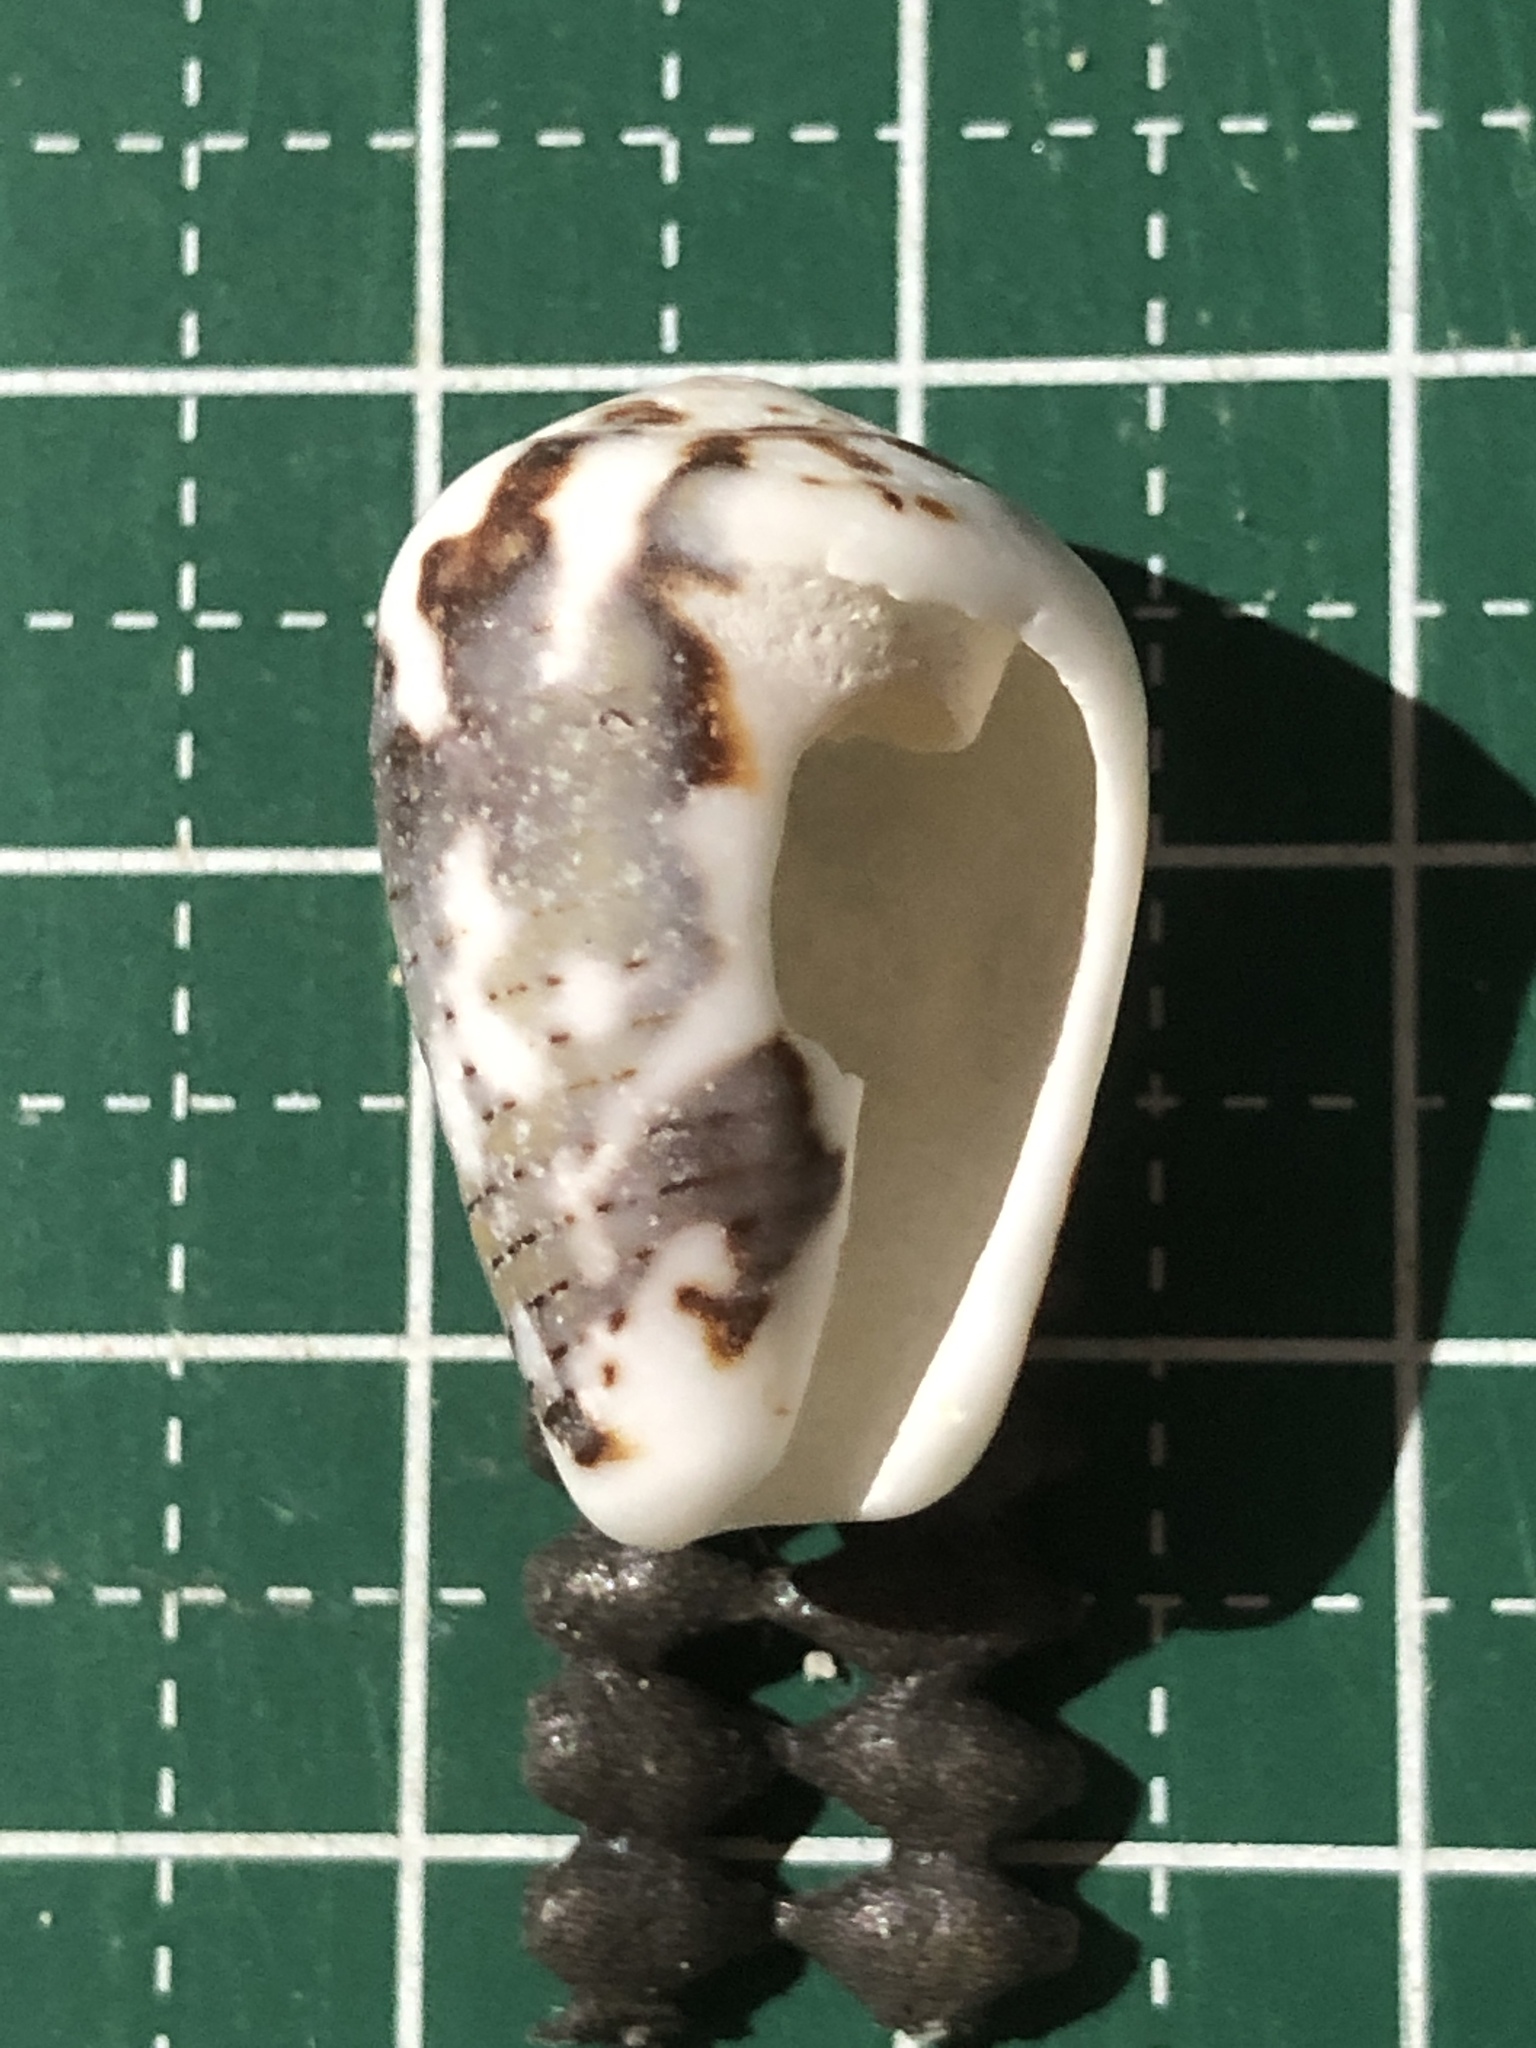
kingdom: Animalia
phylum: Mollusca
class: Gastropoda
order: Neogastropoda
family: Conidae
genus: Conus
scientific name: Conus striolatus
